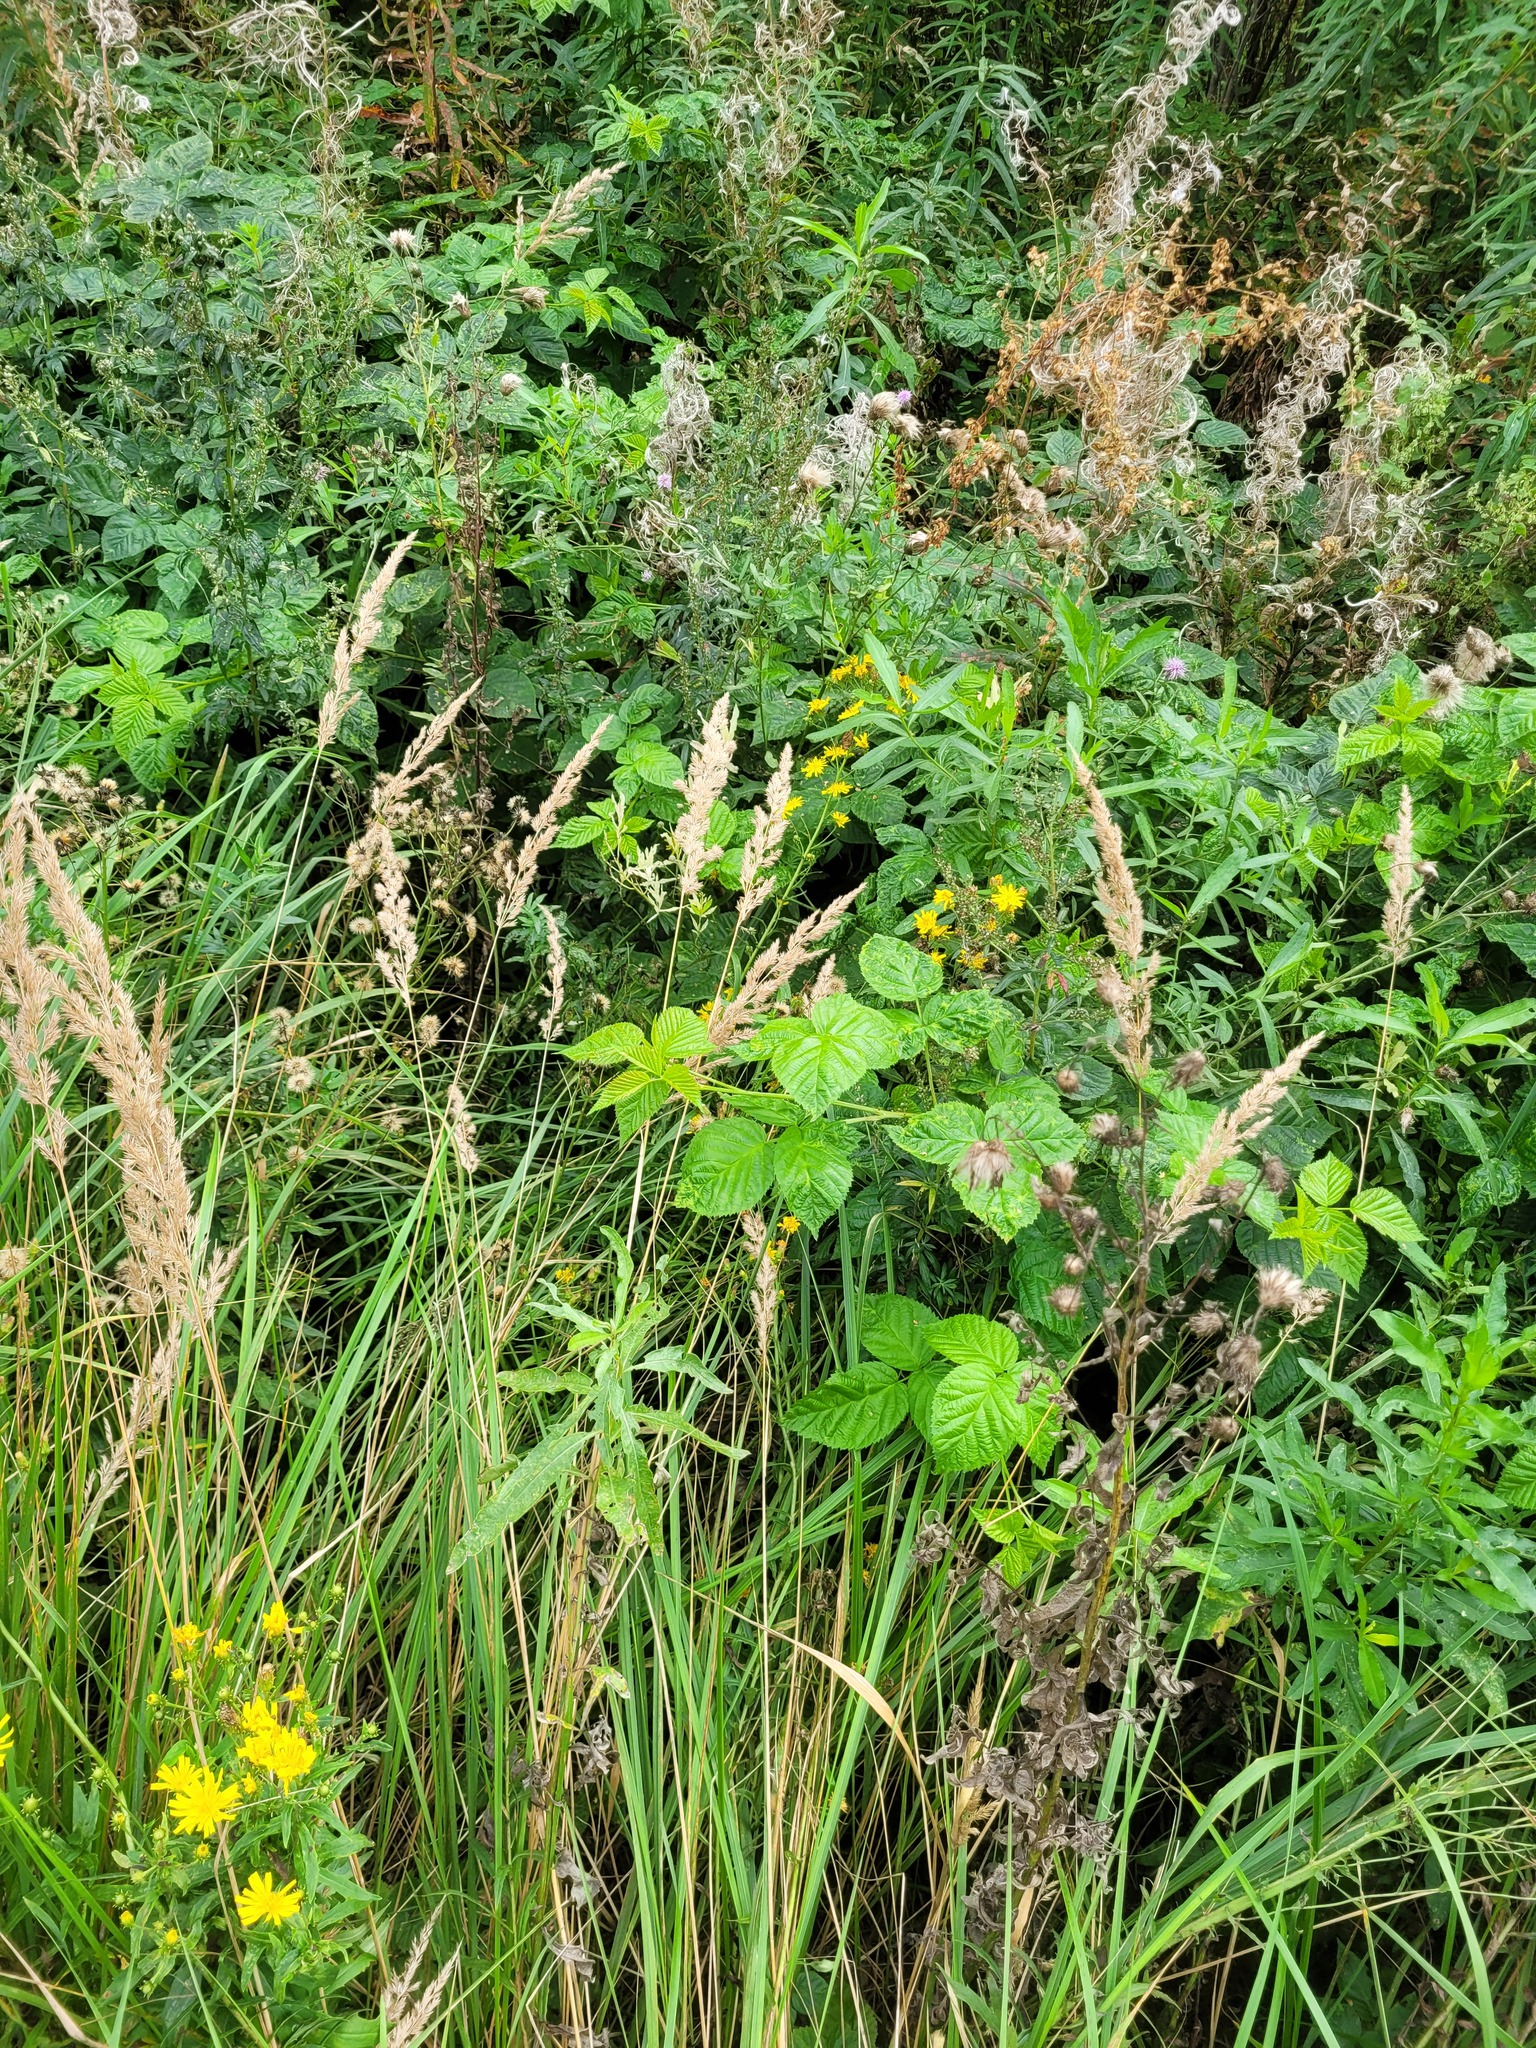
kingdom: Plantae
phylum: Tracheophyta
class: Liliopsida
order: Poales
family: Poaceae
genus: Calamagrostis
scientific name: Calamagrostis epigejos
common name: Wood small-reed
